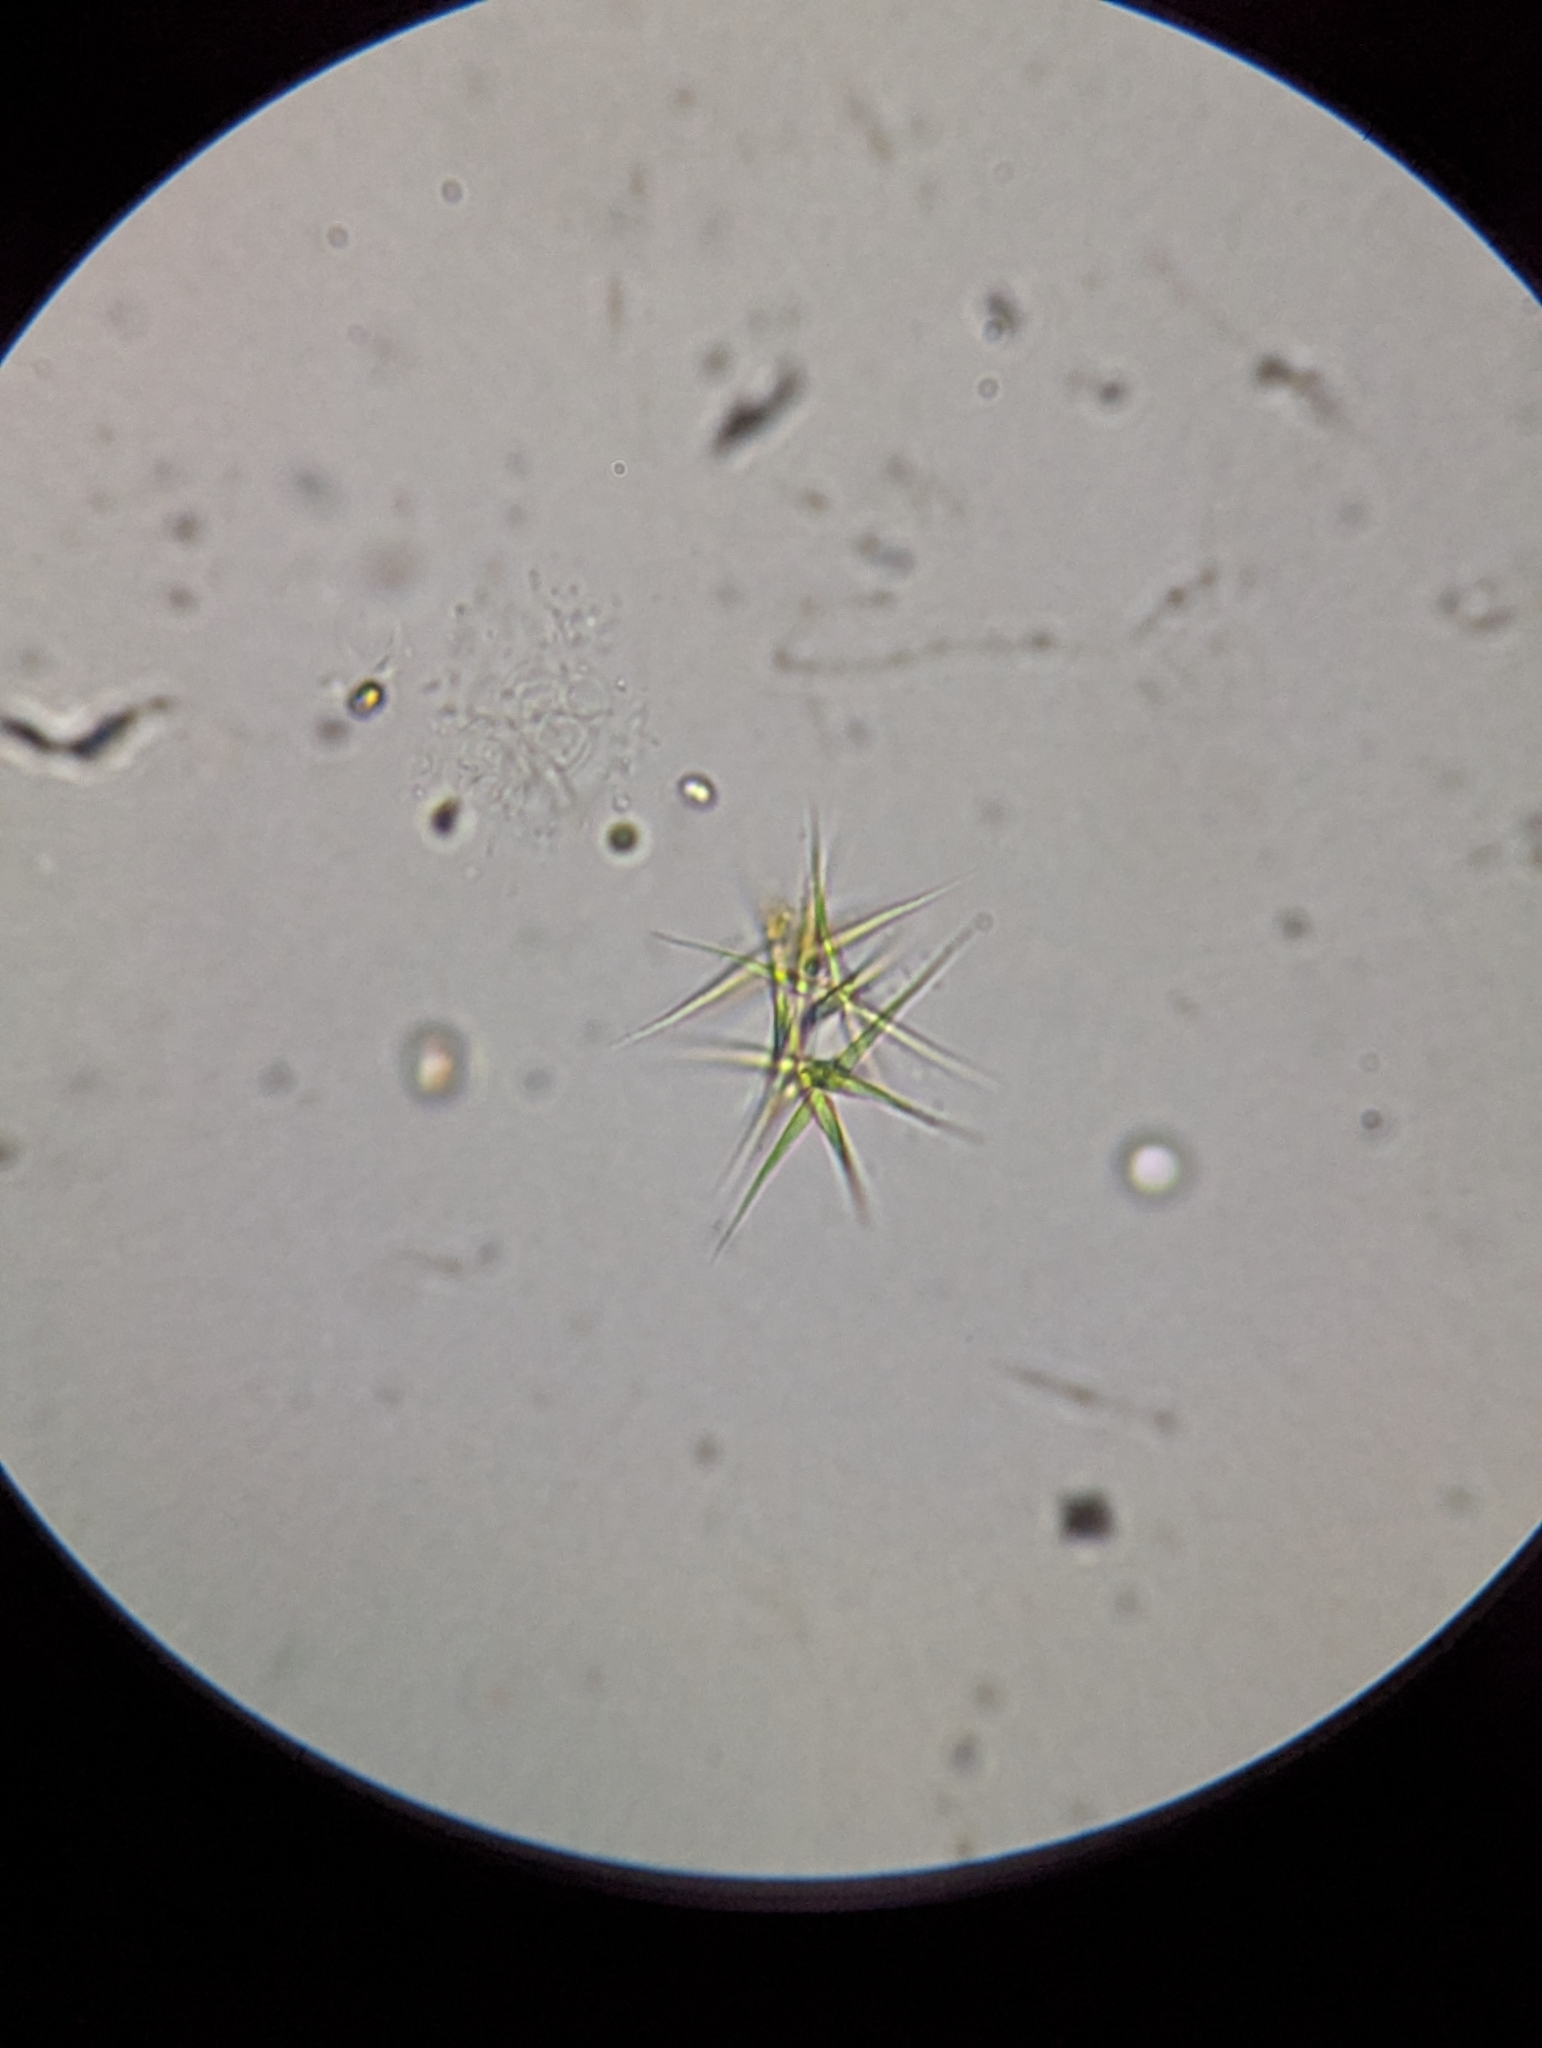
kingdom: Plantae
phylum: Chlorophyta
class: Chlorophyceae
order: Sphaeropleales
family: Selenastraceae
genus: Ankistrodesmus
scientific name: Ankistrodesmus fusiformis
